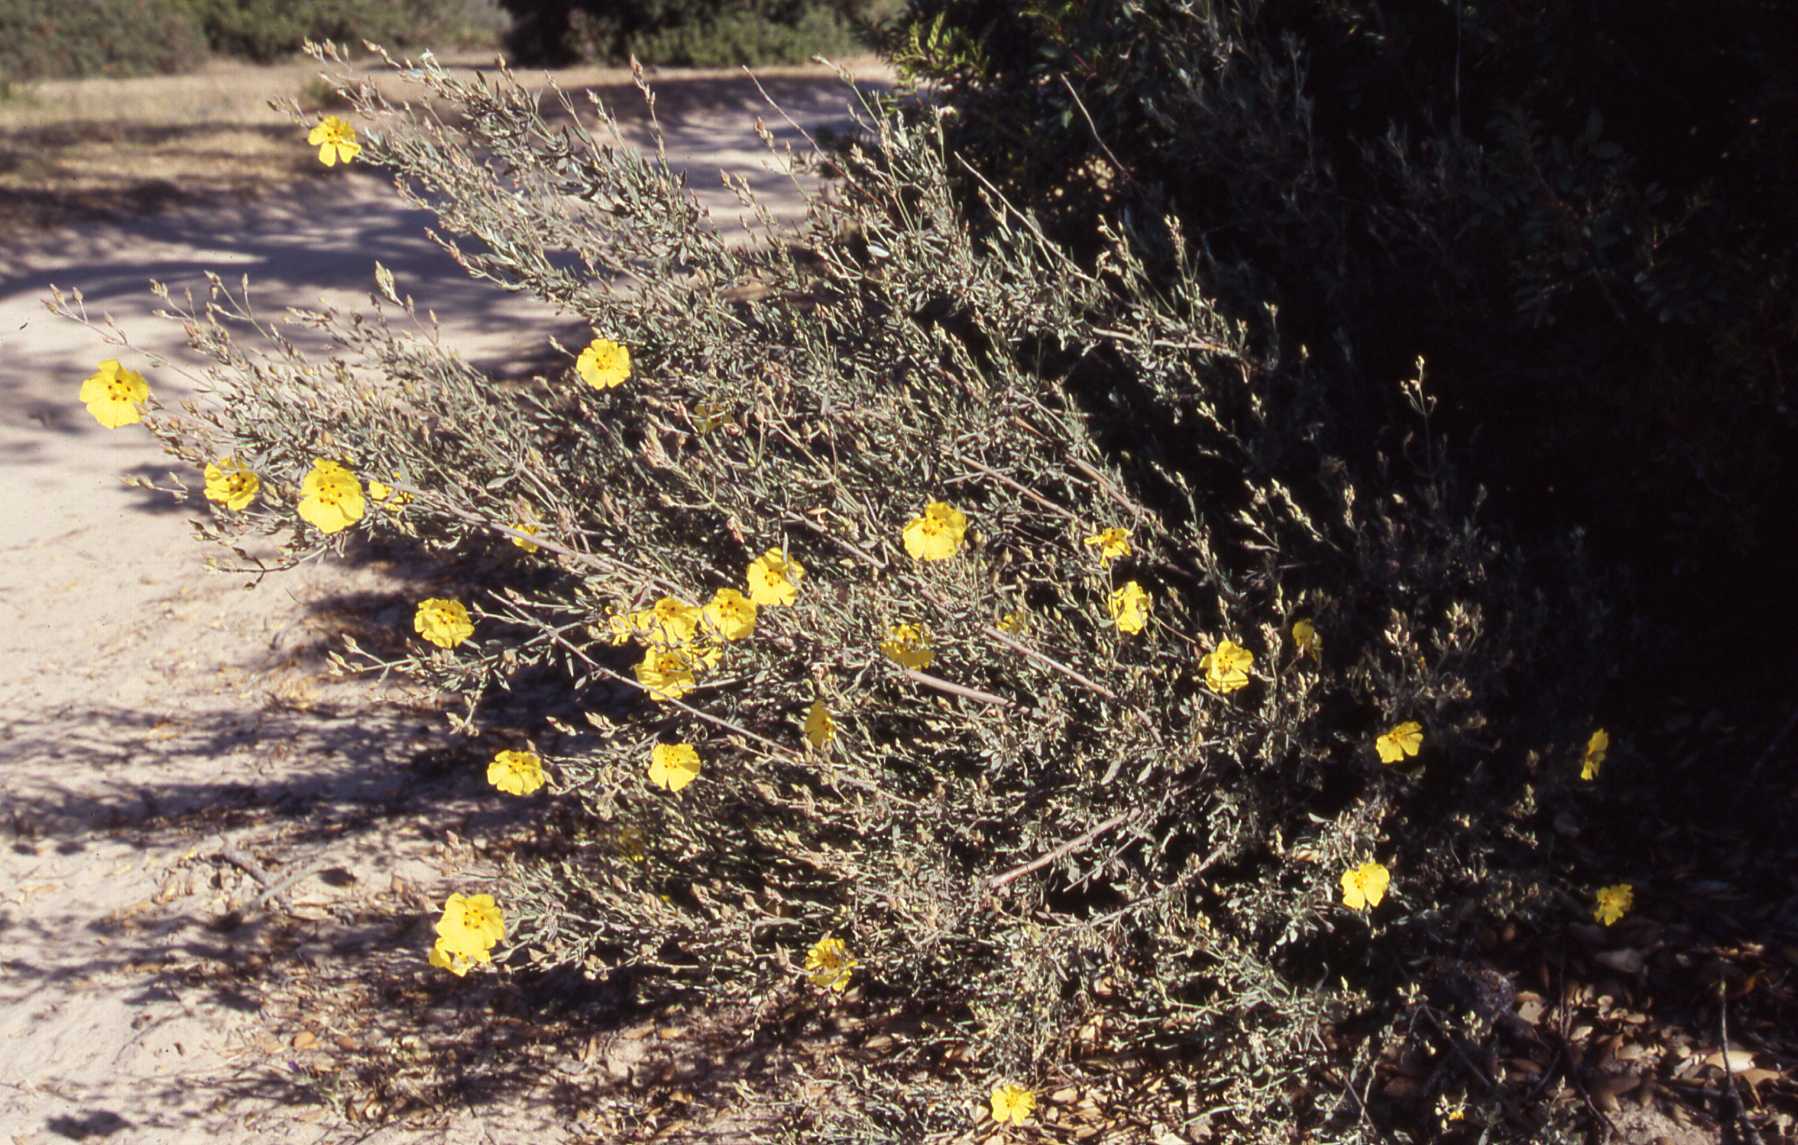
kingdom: Plantae
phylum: Tracheophyta
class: Magnoliopsida
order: Malvales
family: Cistaceae
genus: Halimium
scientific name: Halimium halimifolium
